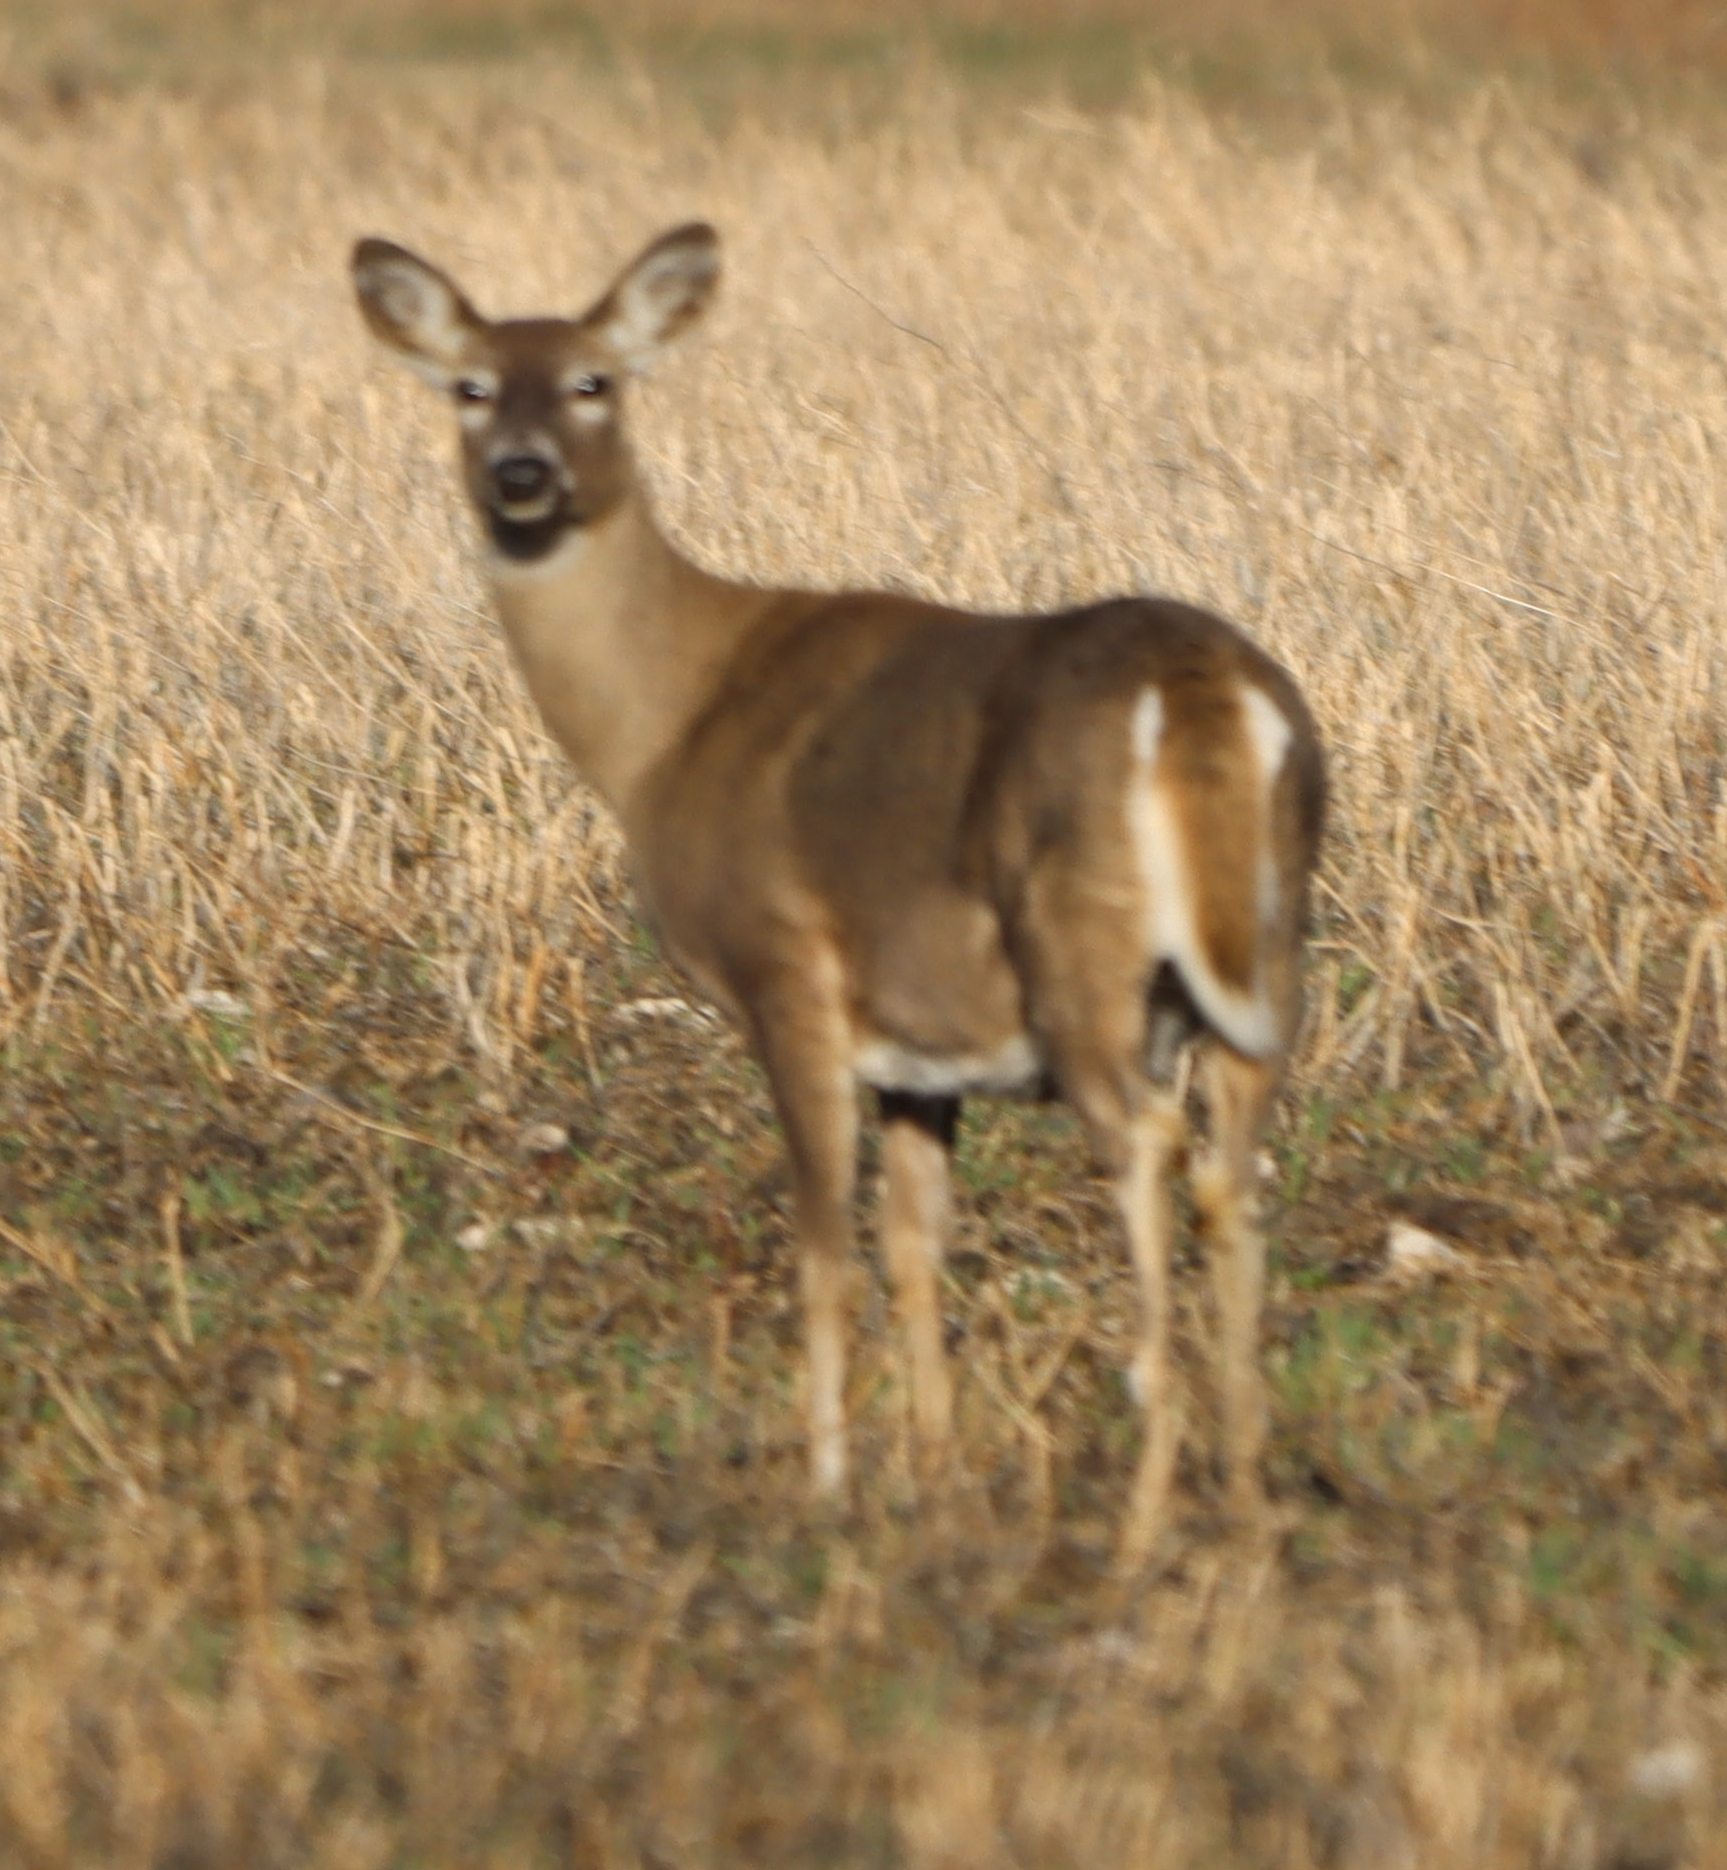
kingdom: Animalia
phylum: Chordata
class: Mammalia
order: Artiodactyla
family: Cervidae
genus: Odocoileus
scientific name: Odocoileus virginianus
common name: White-tailed deer
